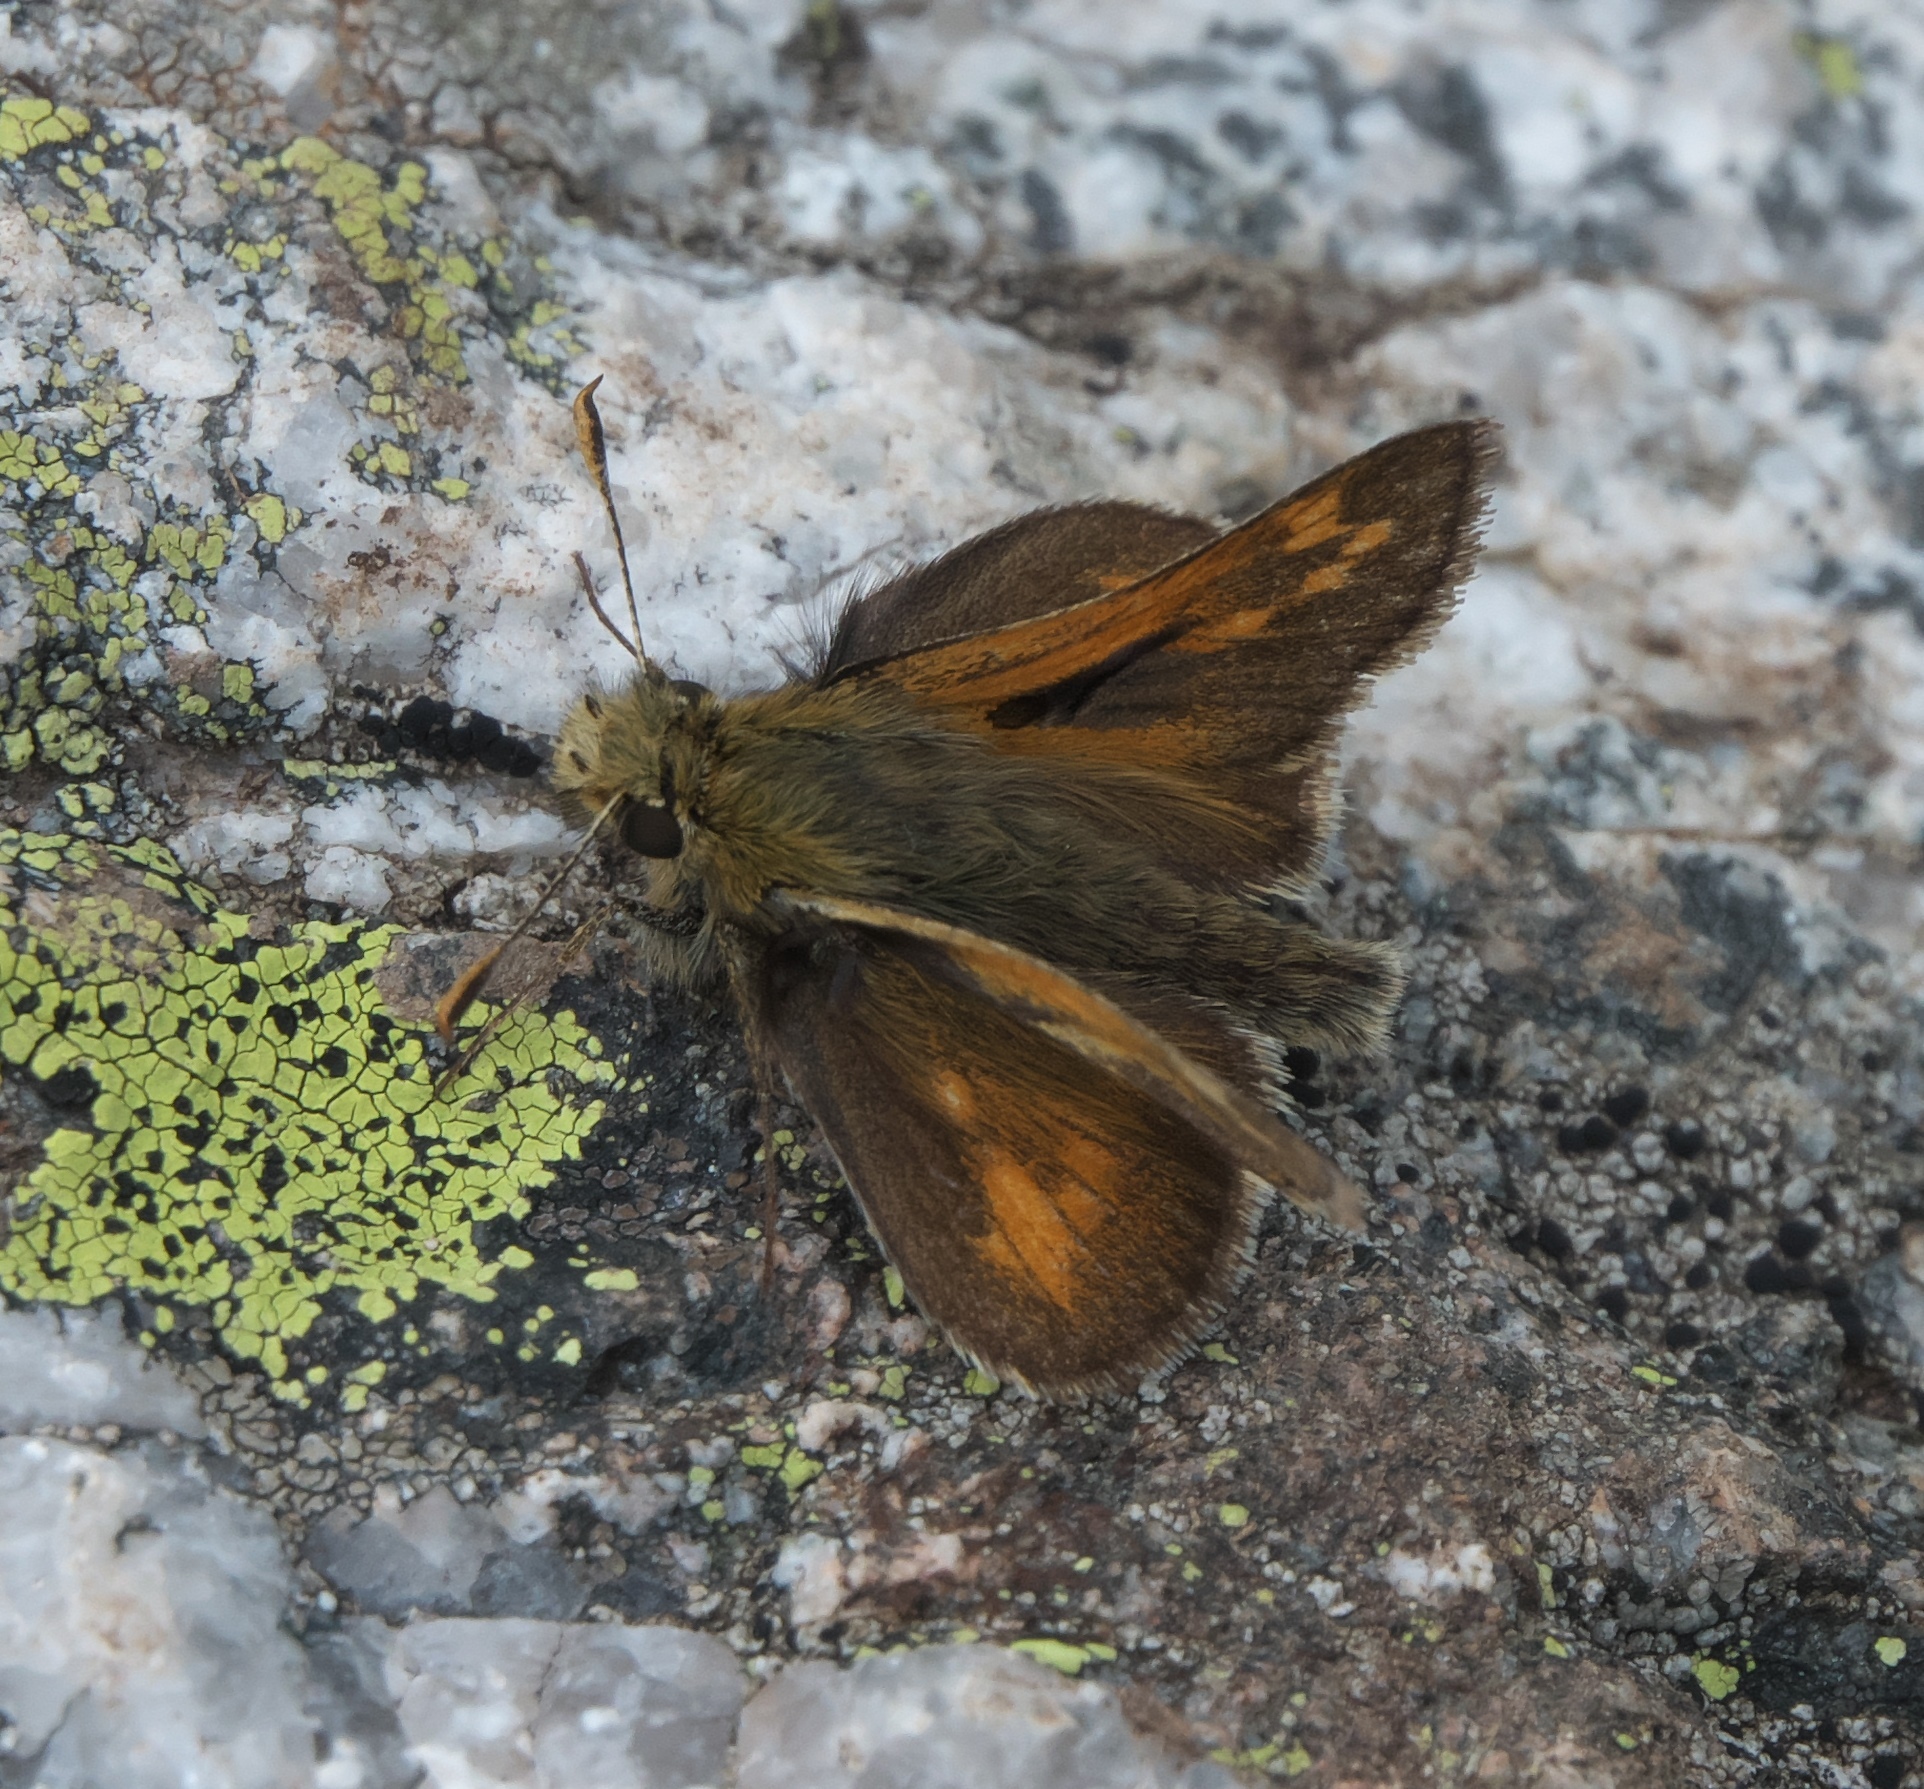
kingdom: Animalia
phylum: Arthropoda
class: Insecta
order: Lepidoptera
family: Hesperiidae
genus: Polites
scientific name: Polites sabuleti
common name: Sandhill skipper
